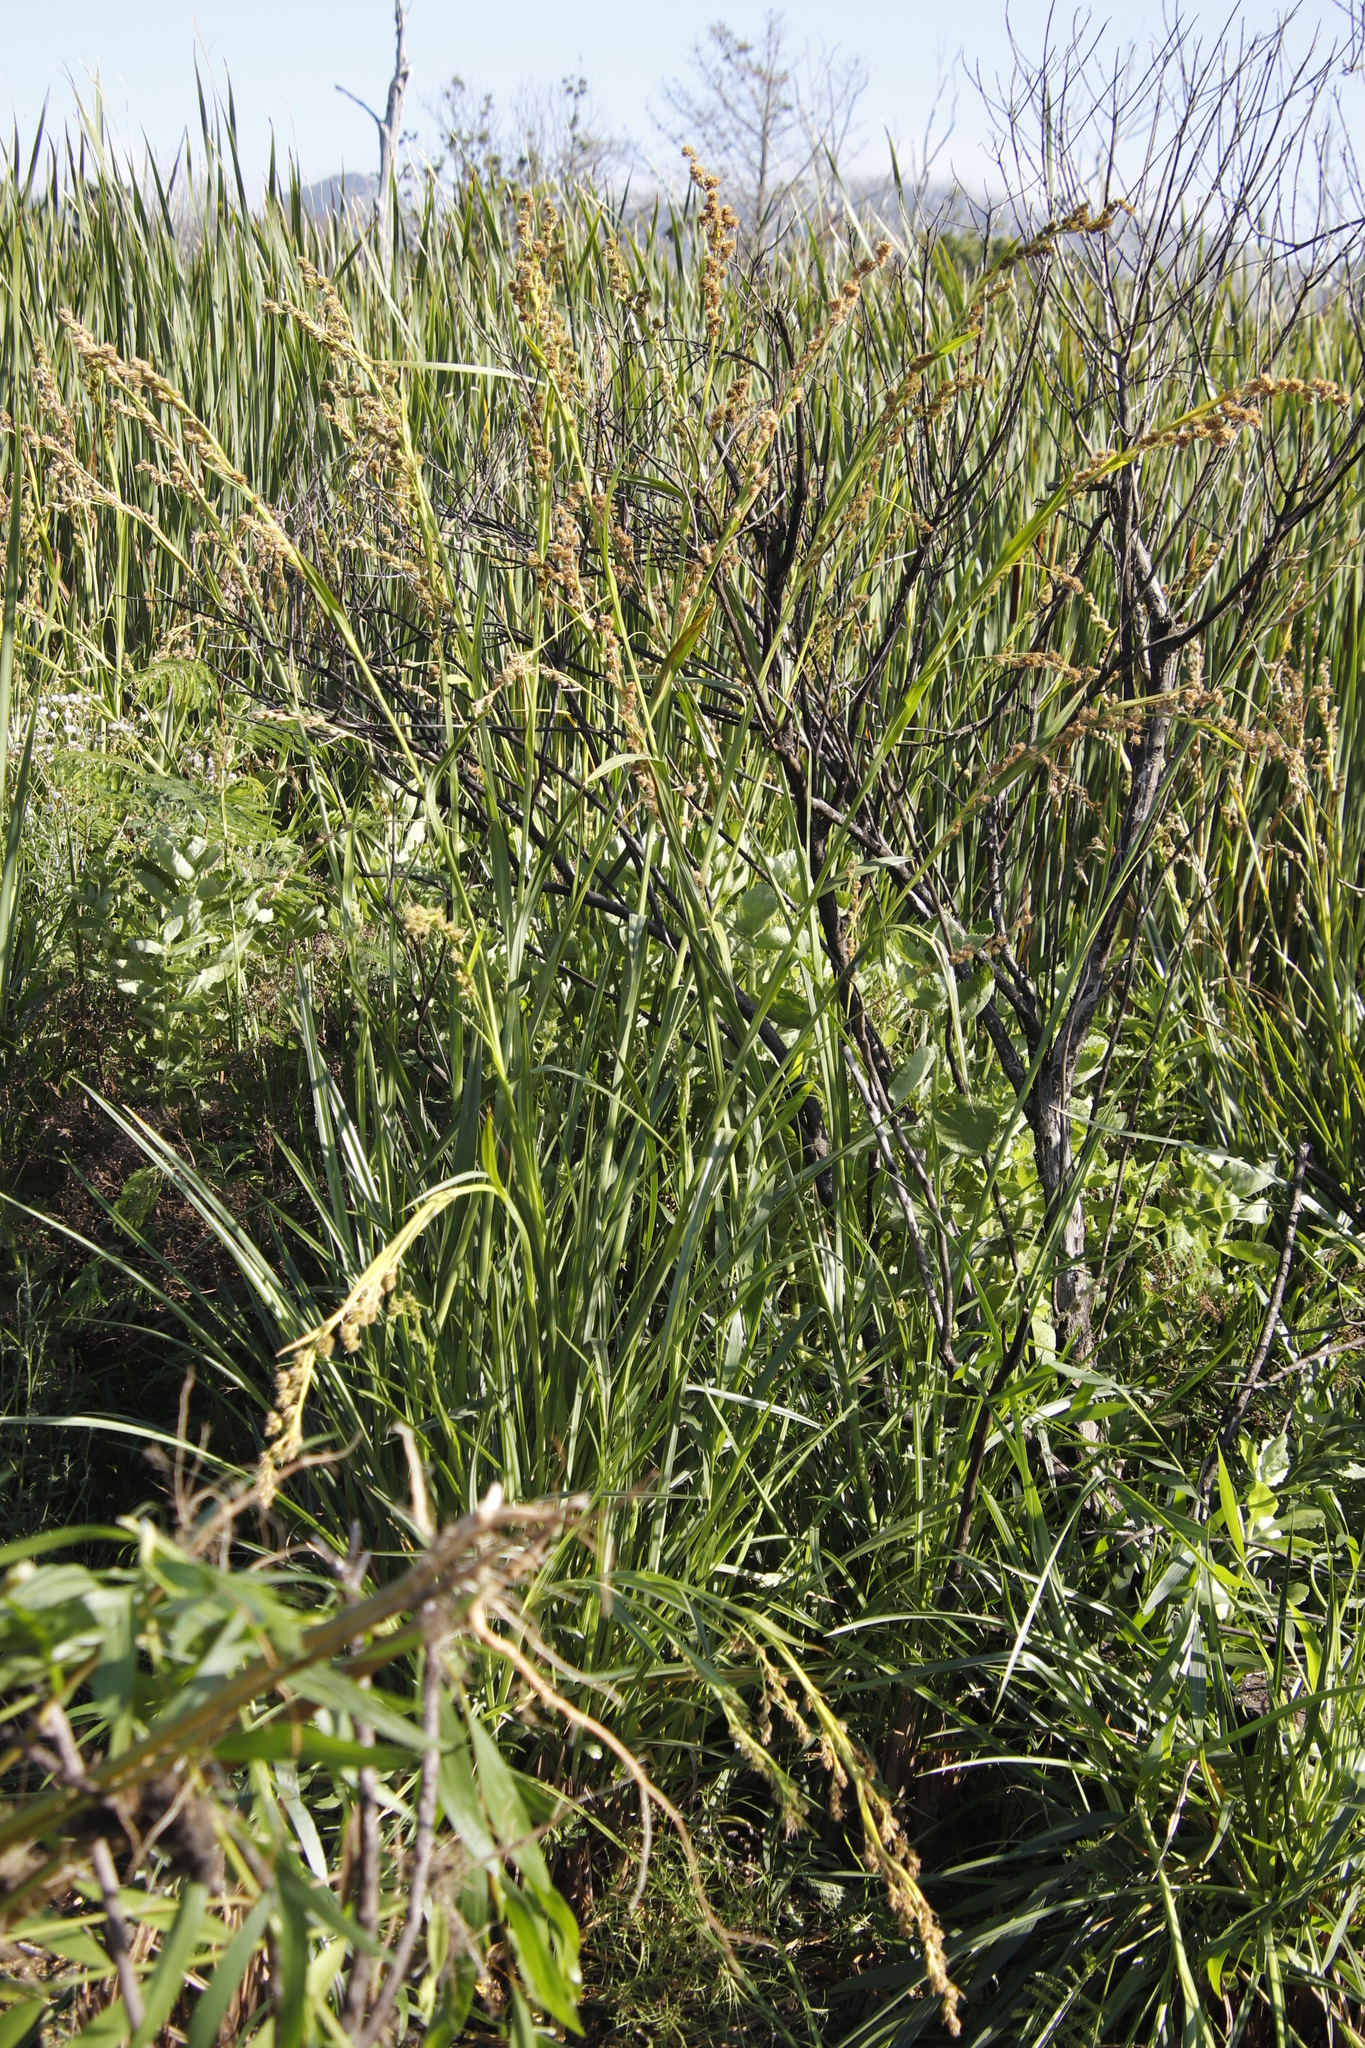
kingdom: Plantae
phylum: Tracheophyta
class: Liliopsida
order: Poales
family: Cyperaceae
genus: Carpha
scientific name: Carpha glomerata
